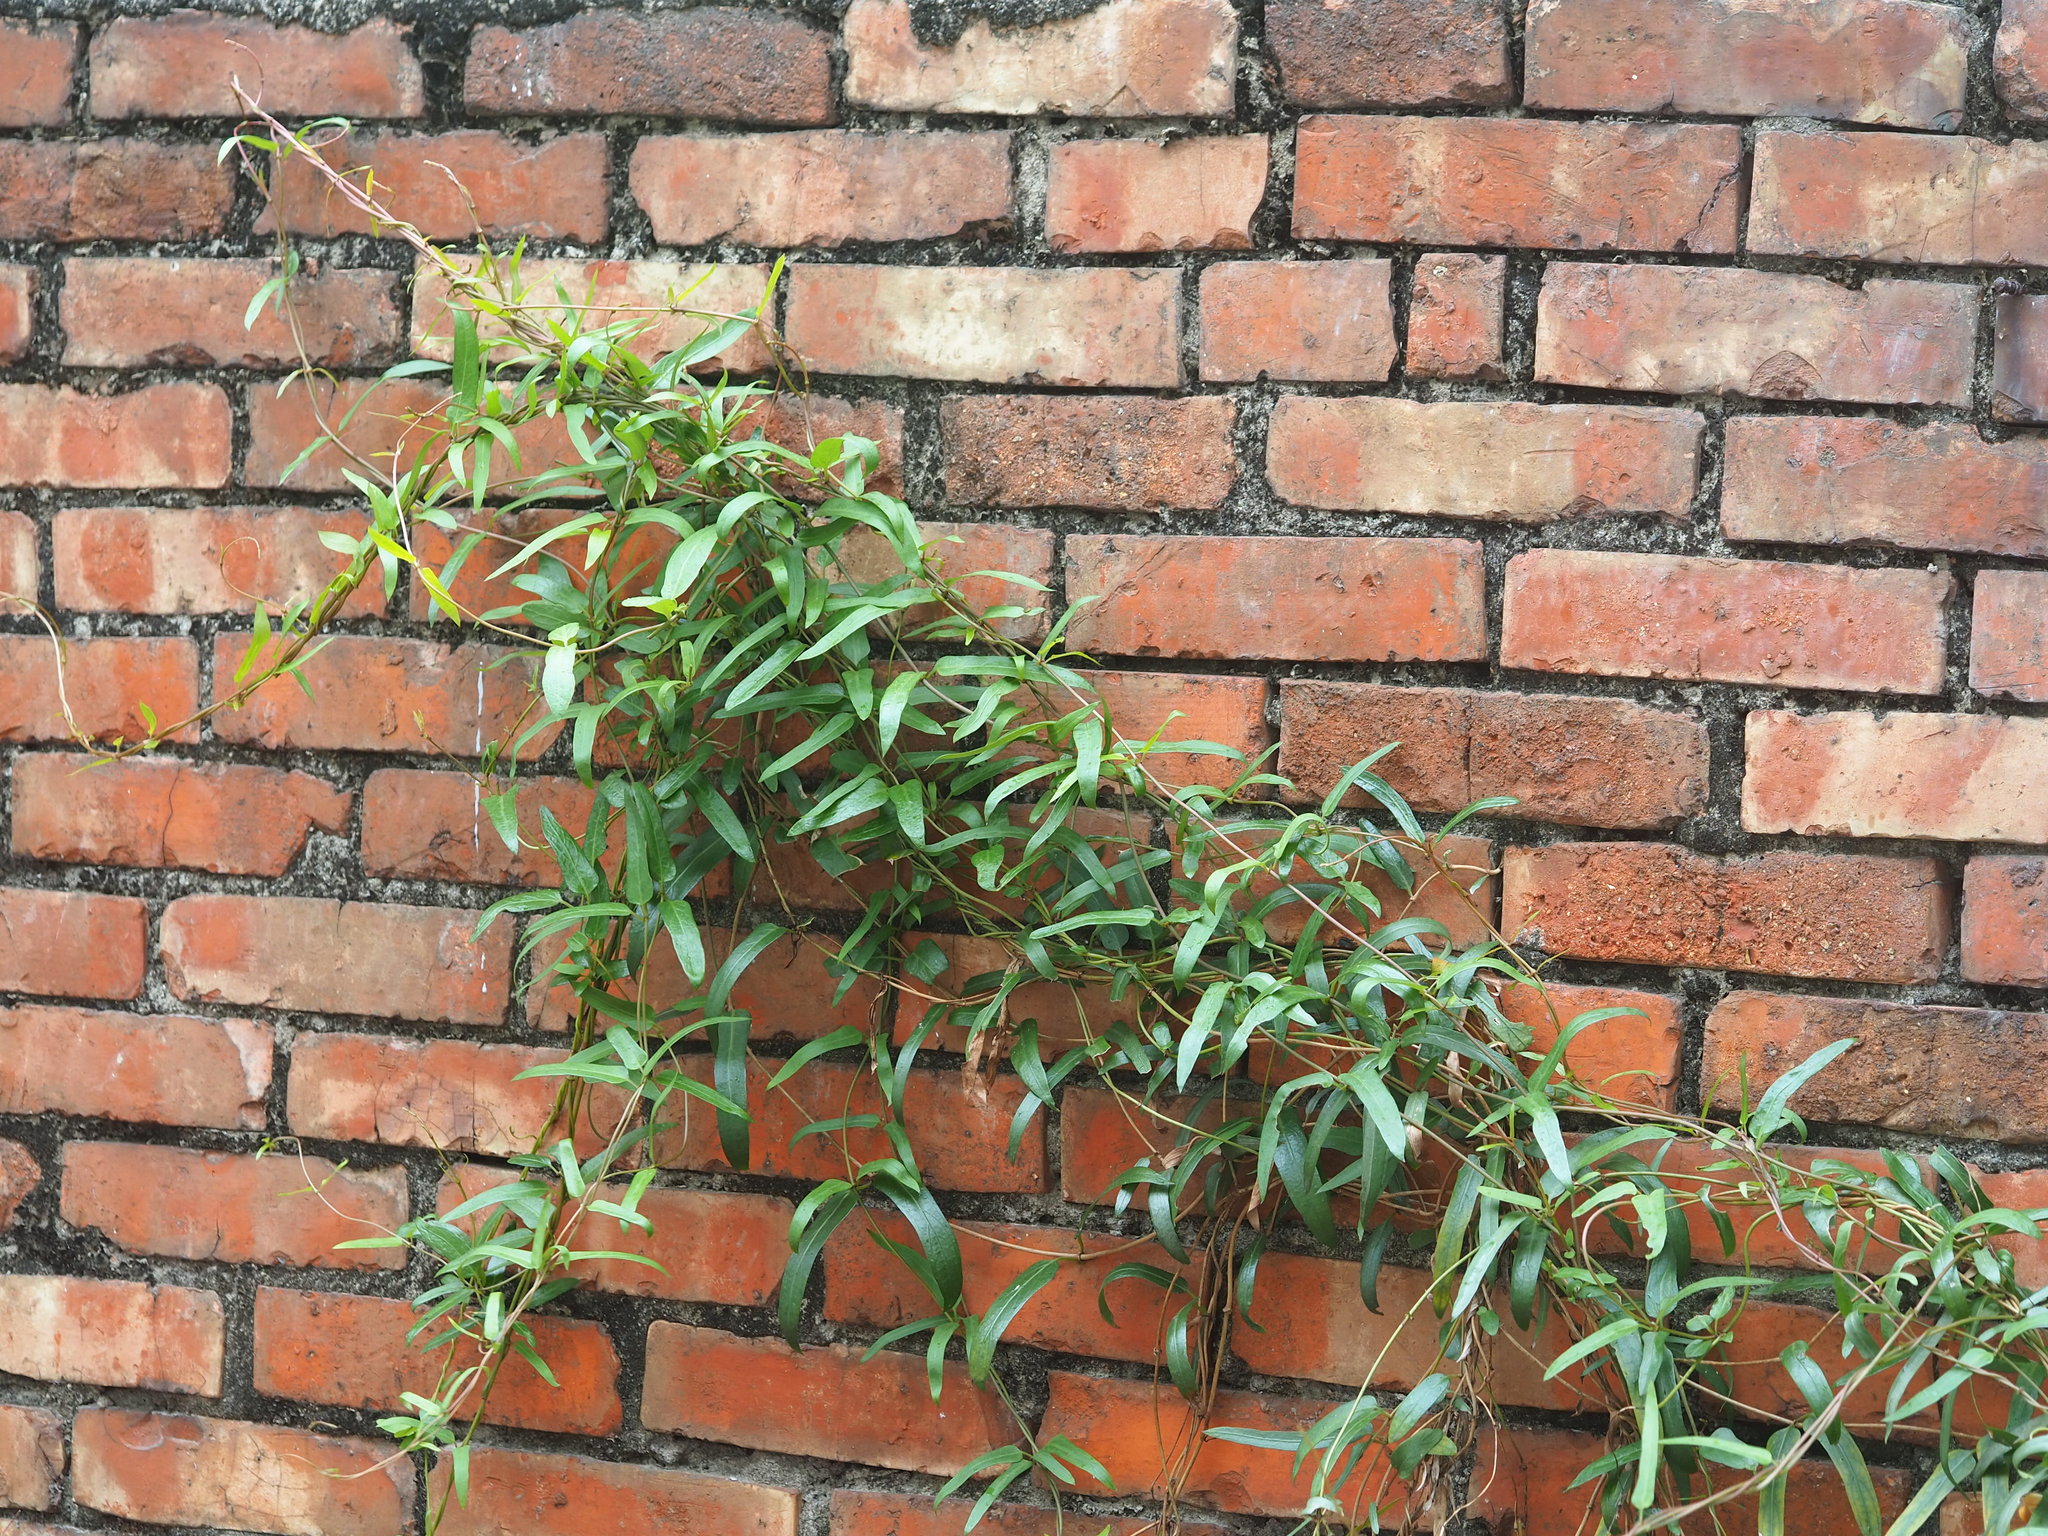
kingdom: Plantae
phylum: Tracheophyta
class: Magnoliopsida
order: Gentianales
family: Rubiaceae
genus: Paederia
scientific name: Paederia foetida
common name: Stinkvine
